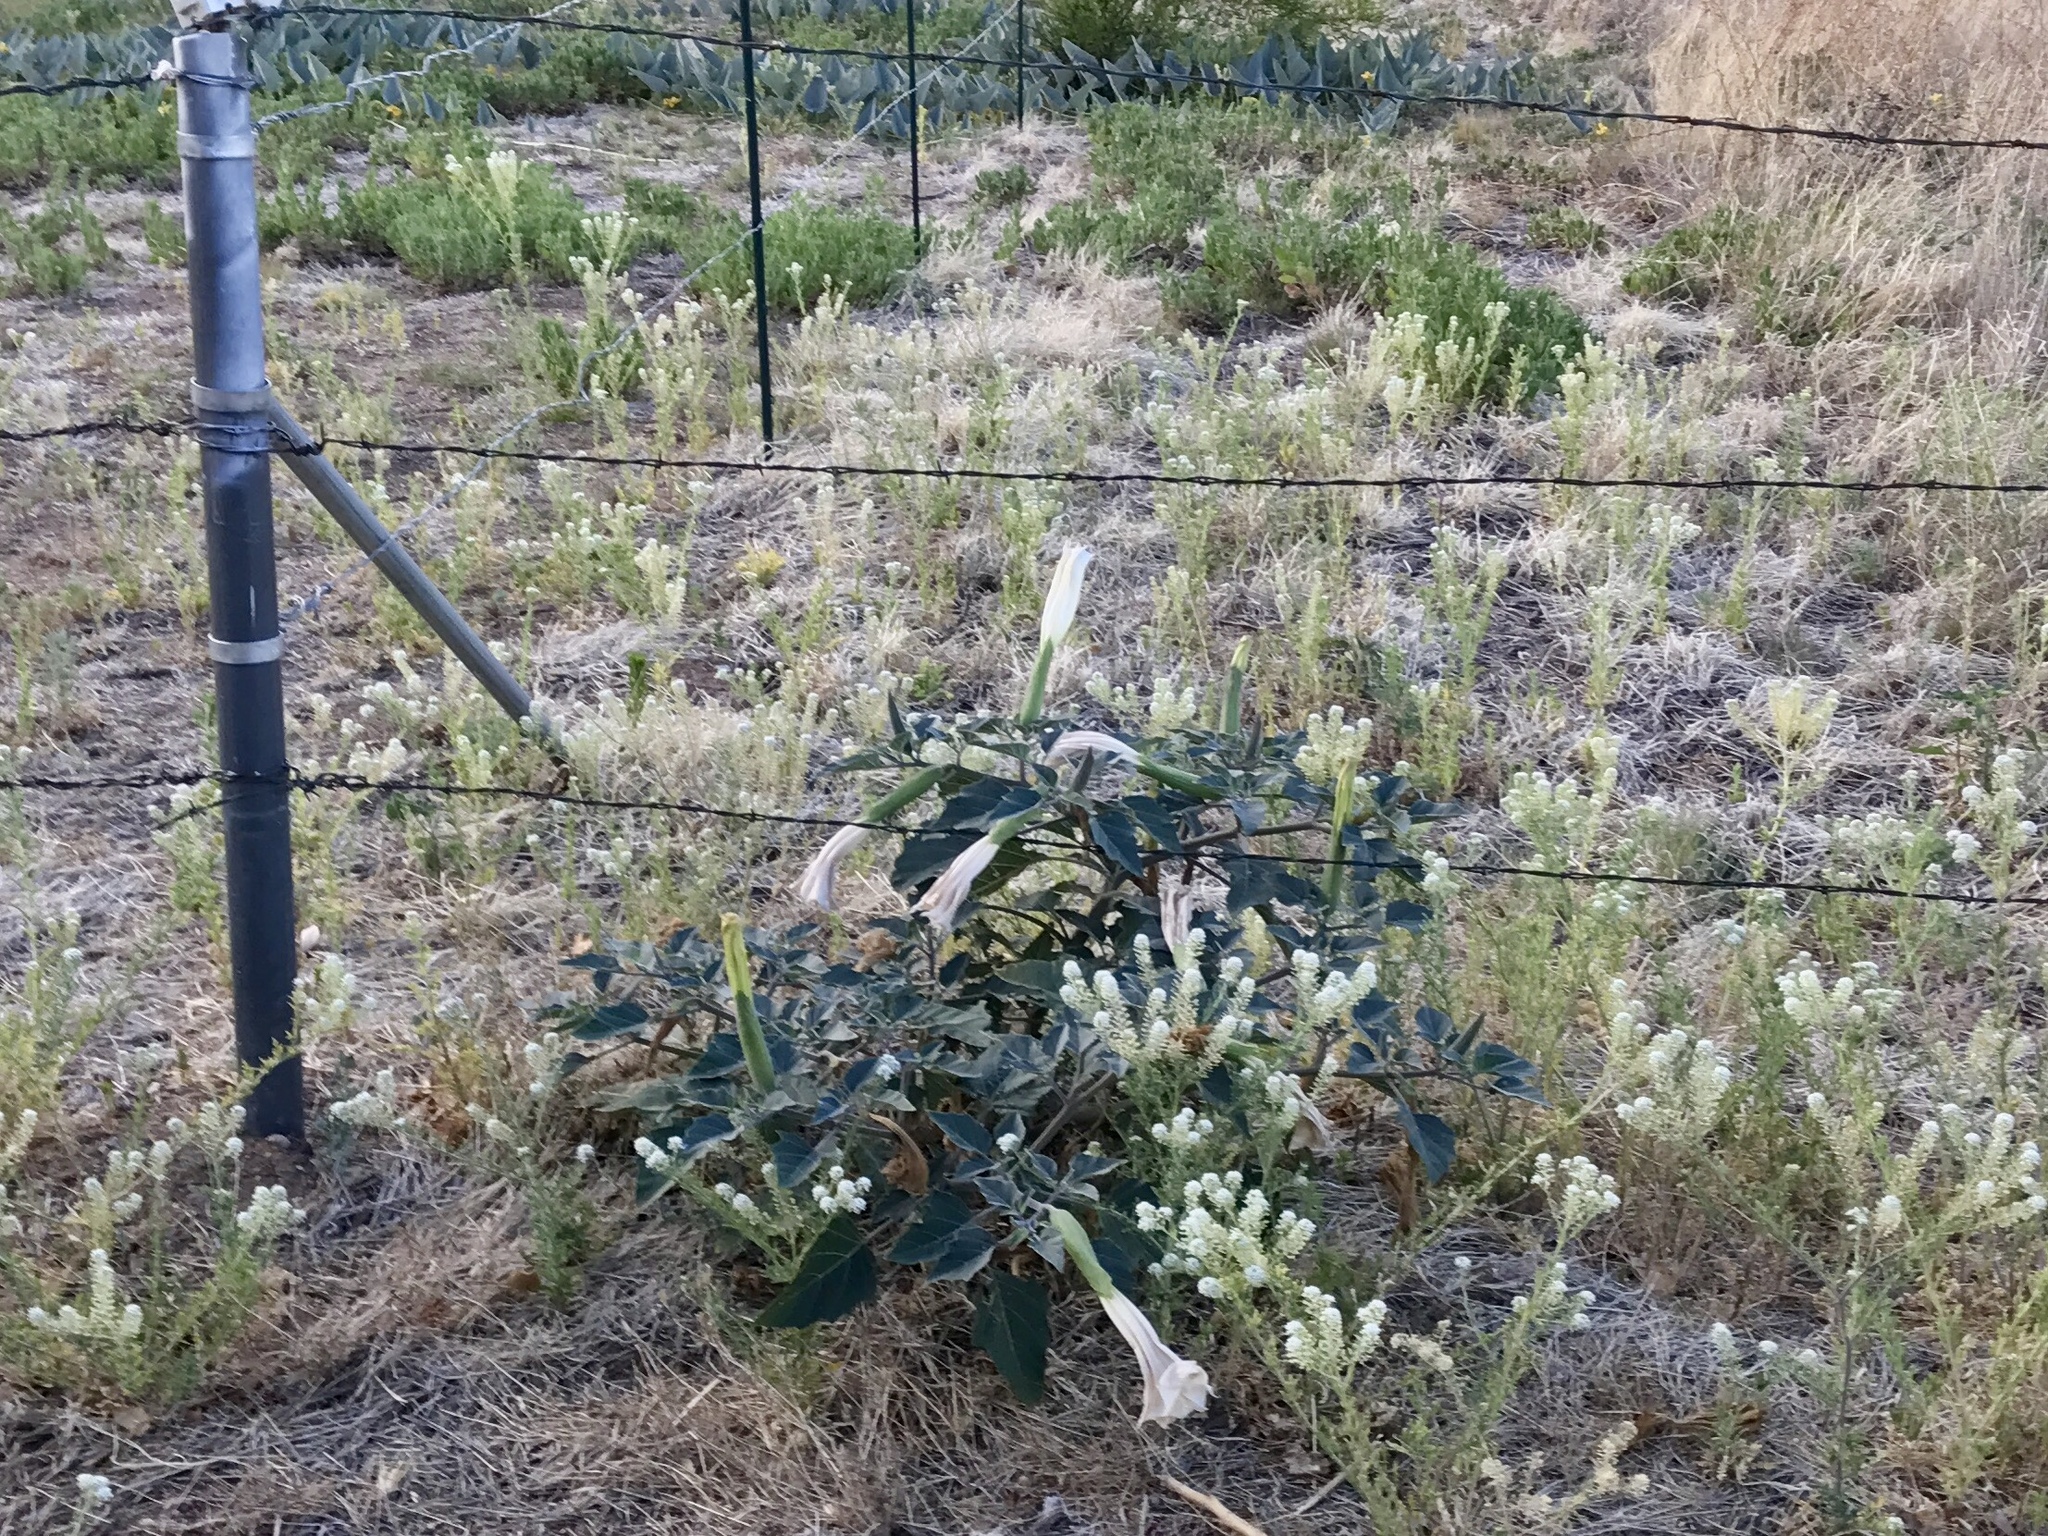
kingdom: Plantae
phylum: Tracheophyta
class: Magnoliopsida
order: Solanales
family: Solanaceae
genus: Datura
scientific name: Datura wrightii
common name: Sacred thorn-apple
